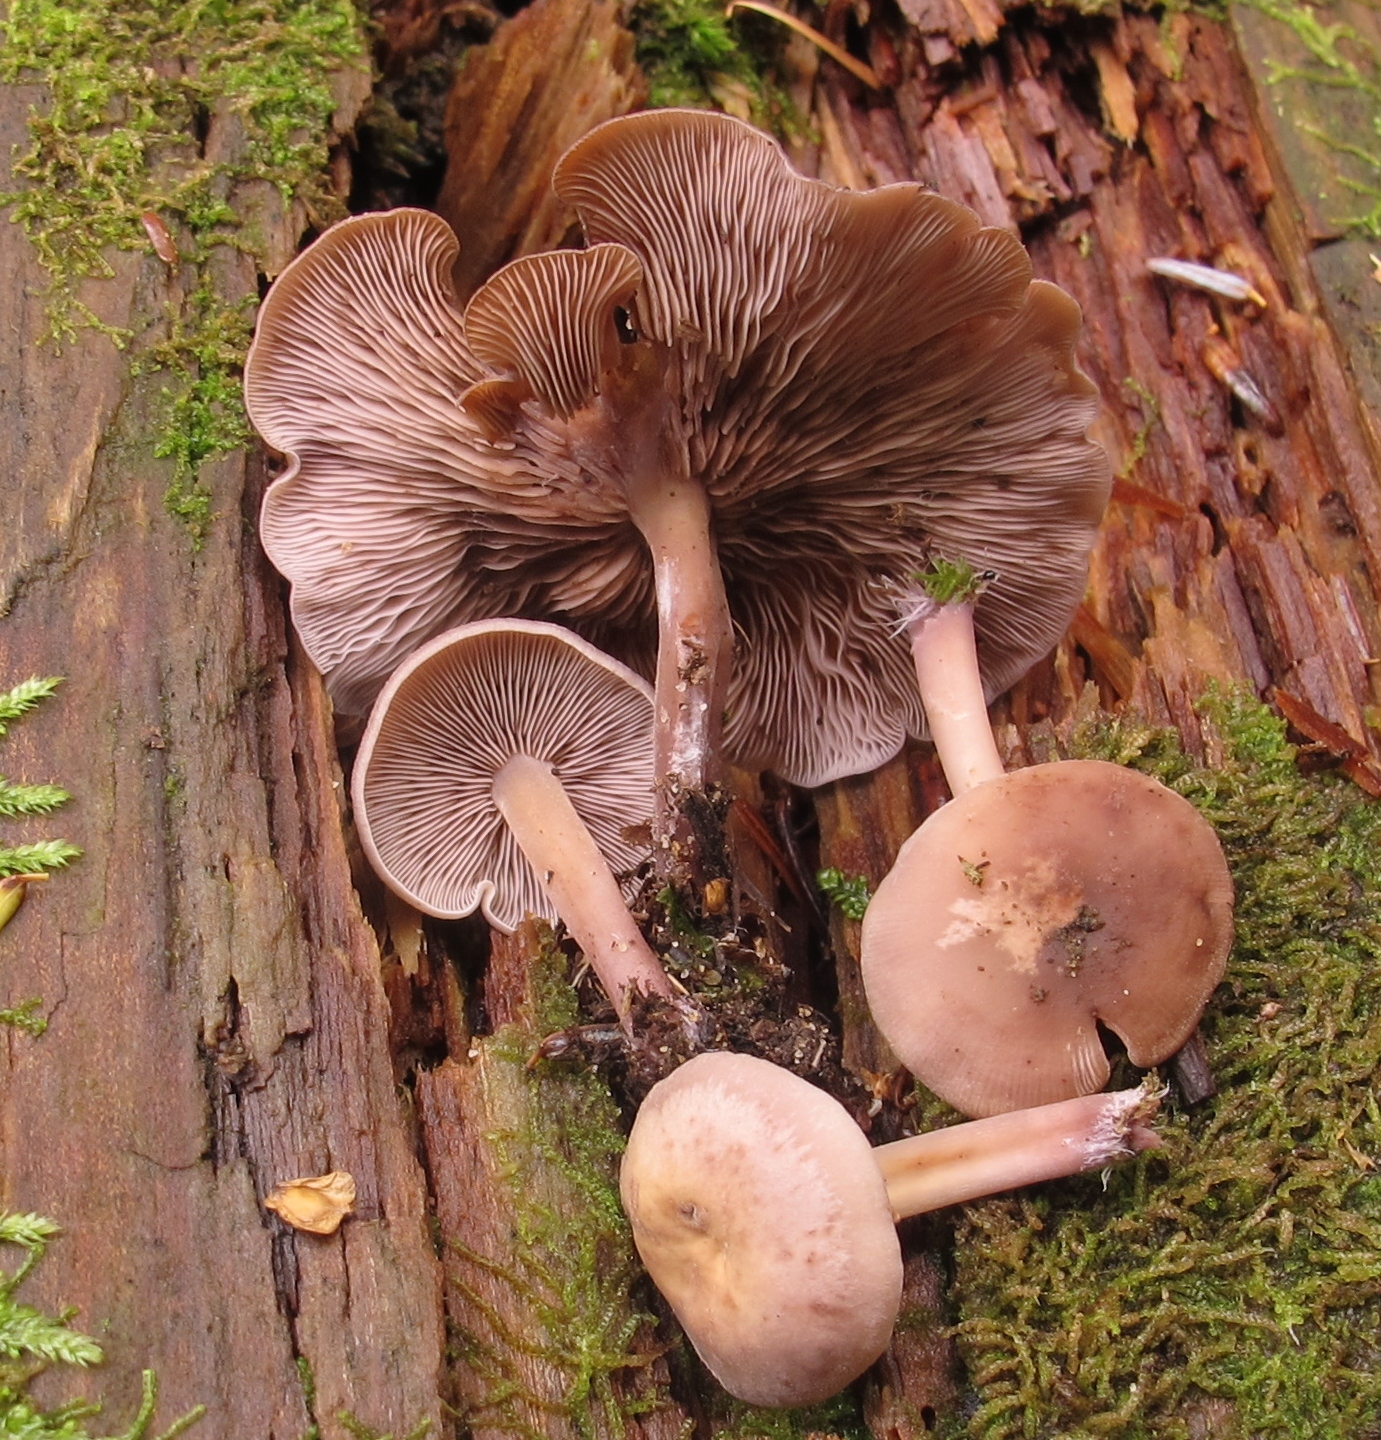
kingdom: Fungi
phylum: Basidiomycota
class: Agaricomycetes
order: Agaricales
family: Marasmiaceae
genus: Baeospora
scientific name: Baeospora myriadophylla
